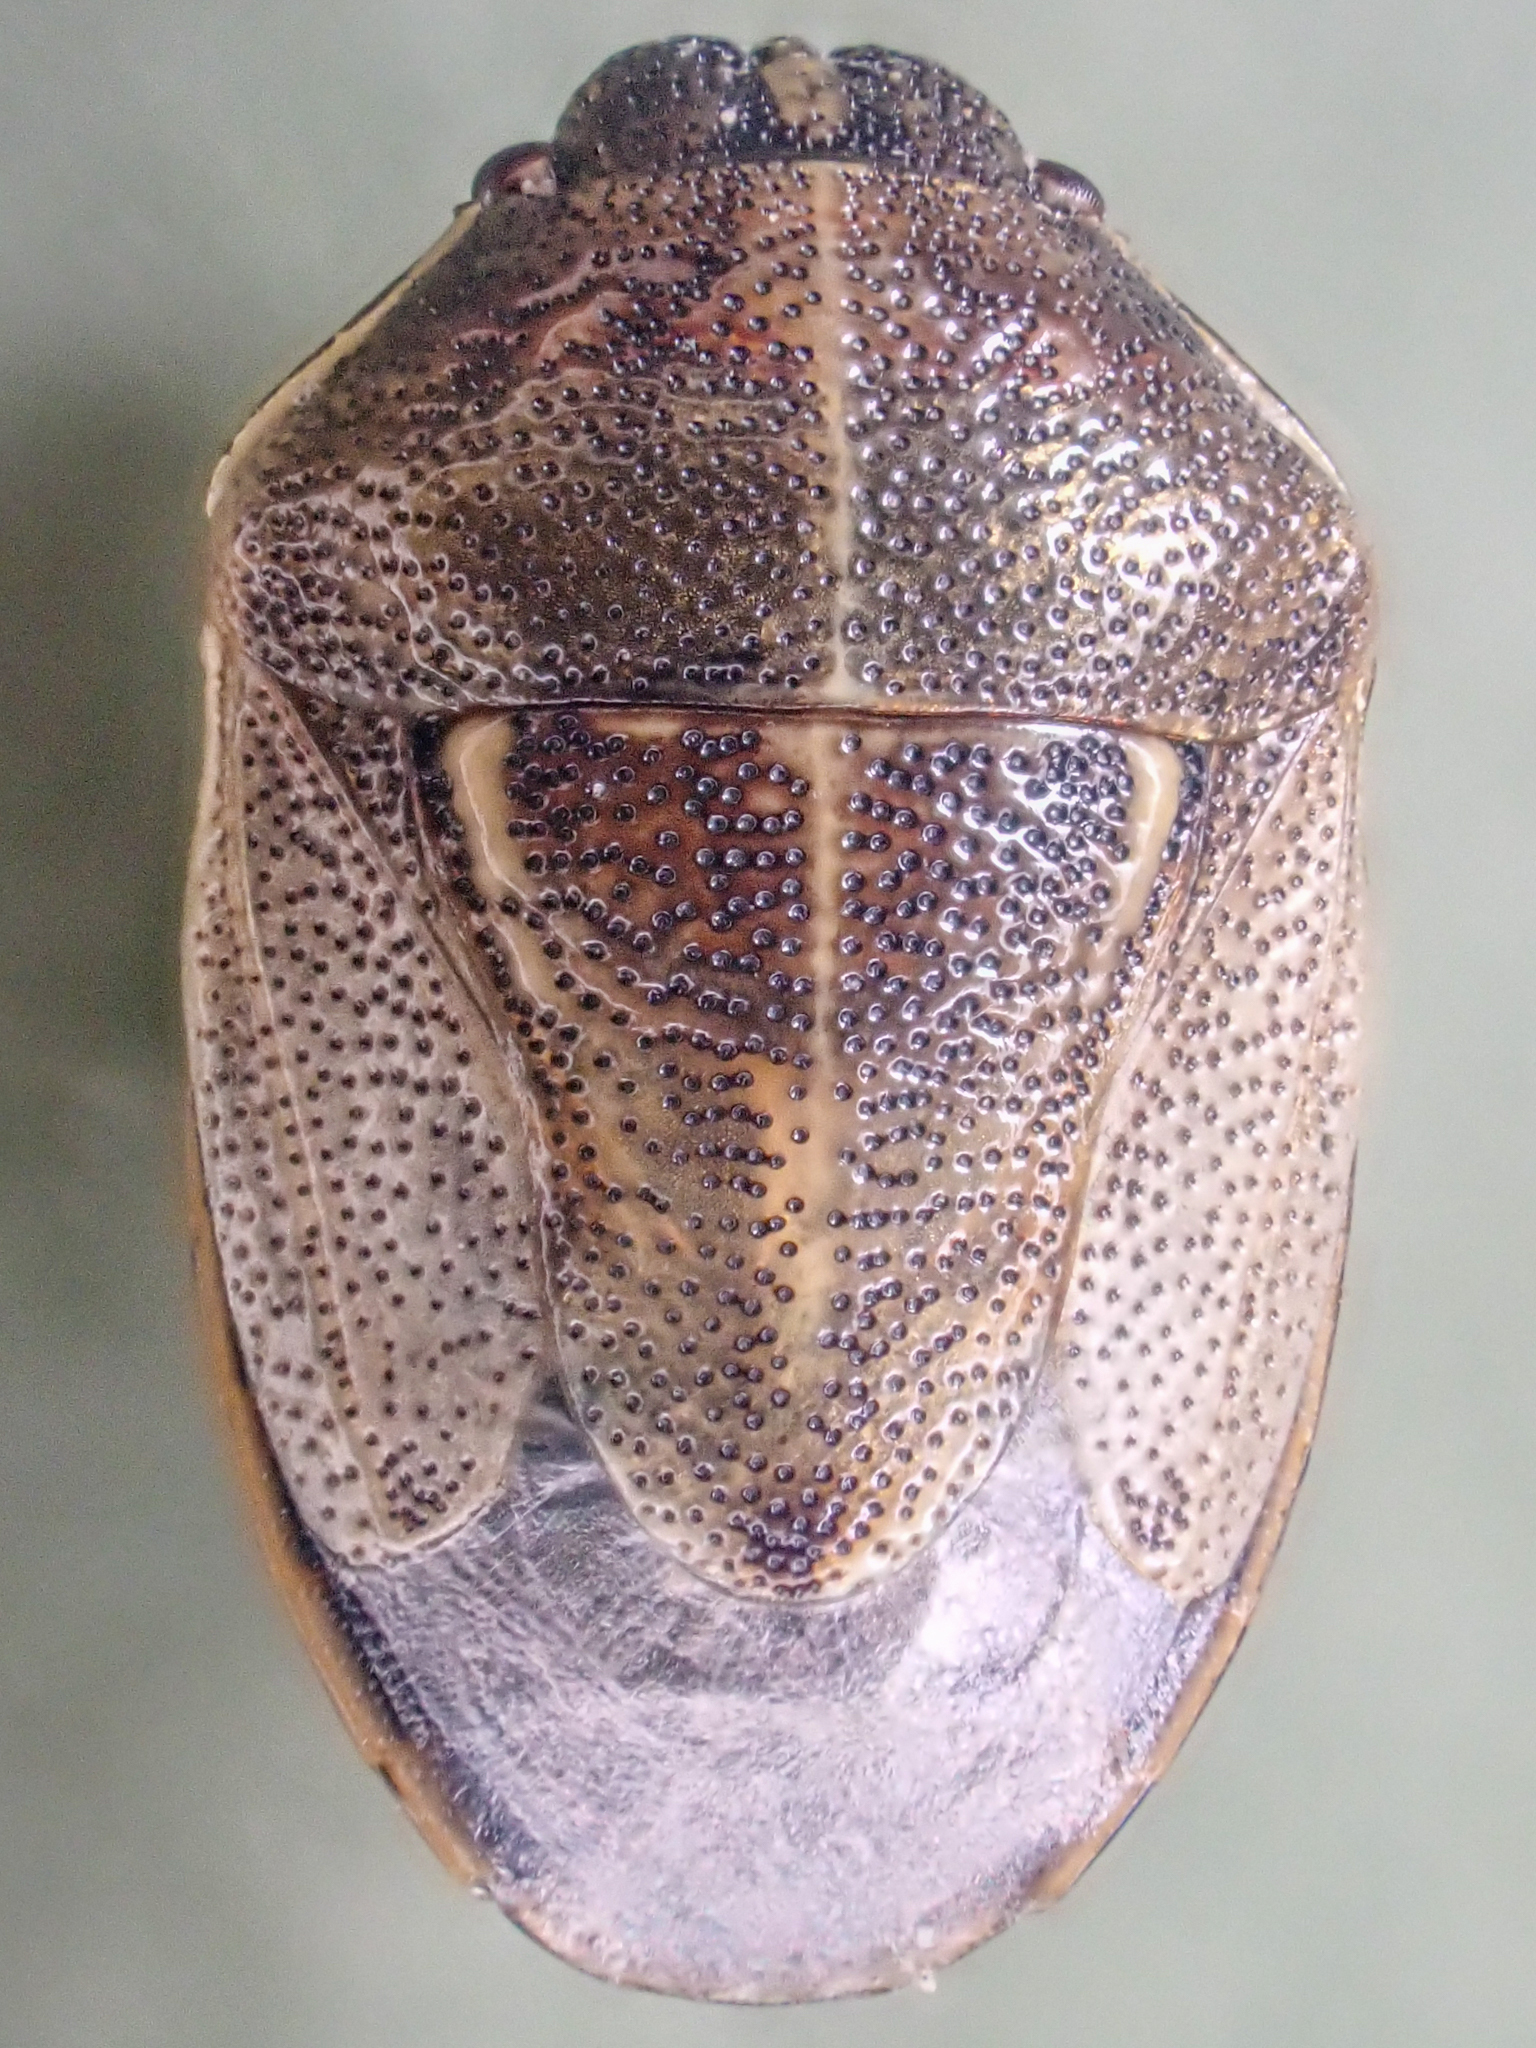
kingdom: Animalia
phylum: Arthropoda
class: Insecta
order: Hemiptera
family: Pentatomidae
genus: Neottiglossa
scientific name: Neottiglossa undata
